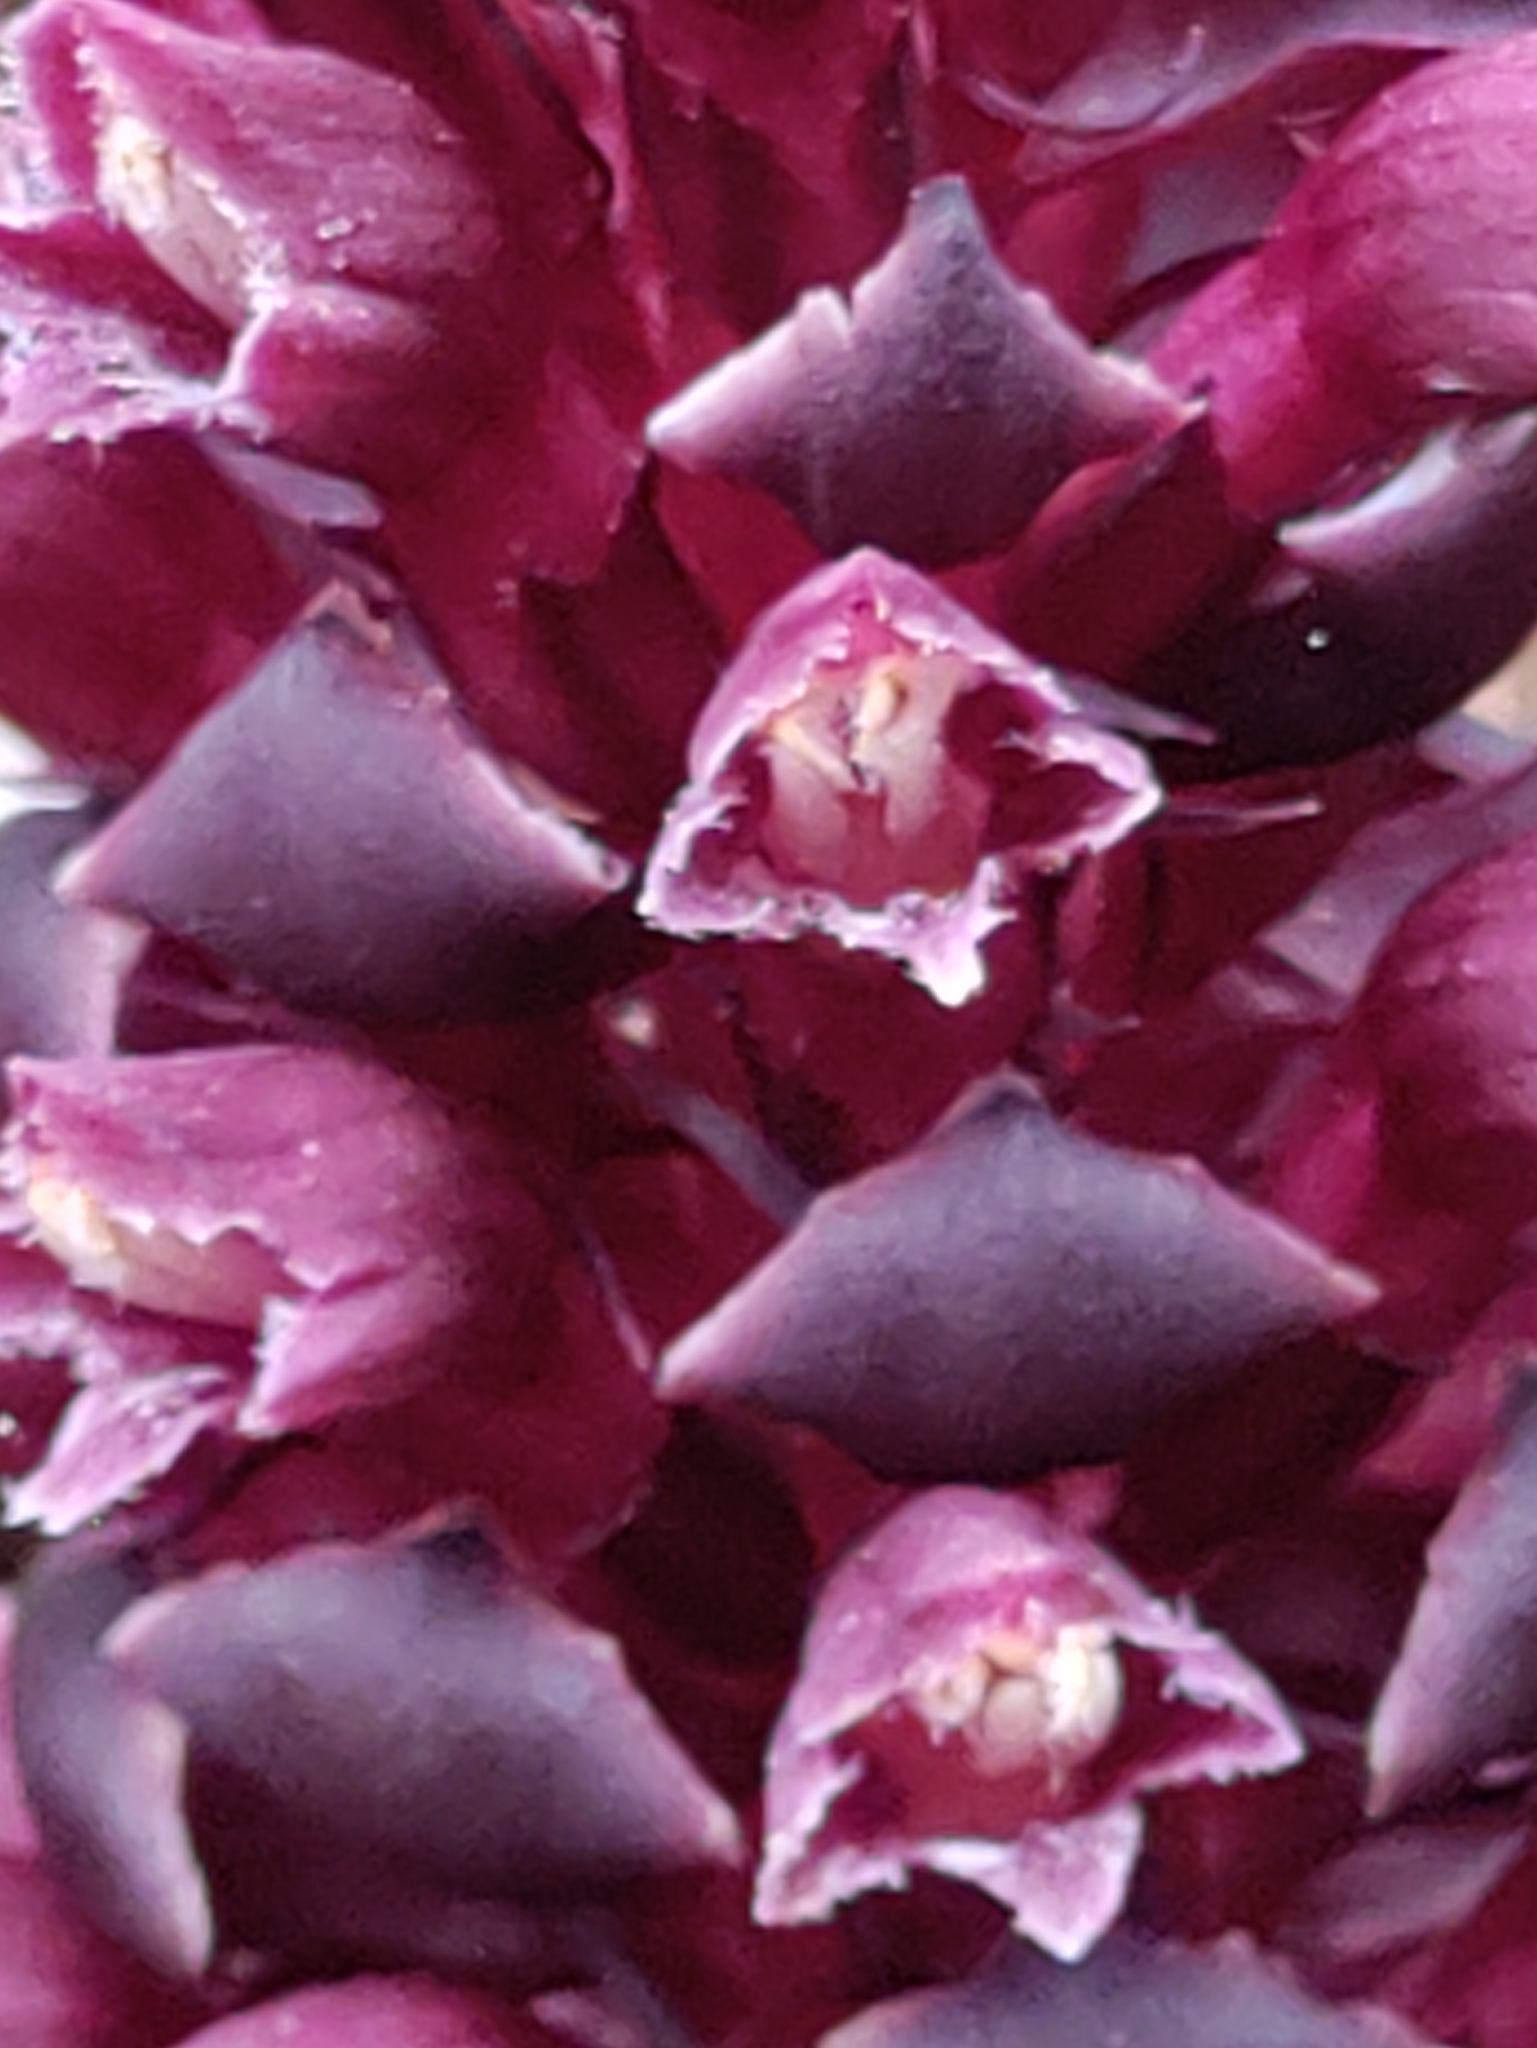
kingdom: Plantae
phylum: Tracheophyta
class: Magnoliopsida
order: Lamiales
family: Orobanchaceae
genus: Kopsiopsis
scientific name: Kopsiopsis hookeri
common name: Hooker's groundcone
